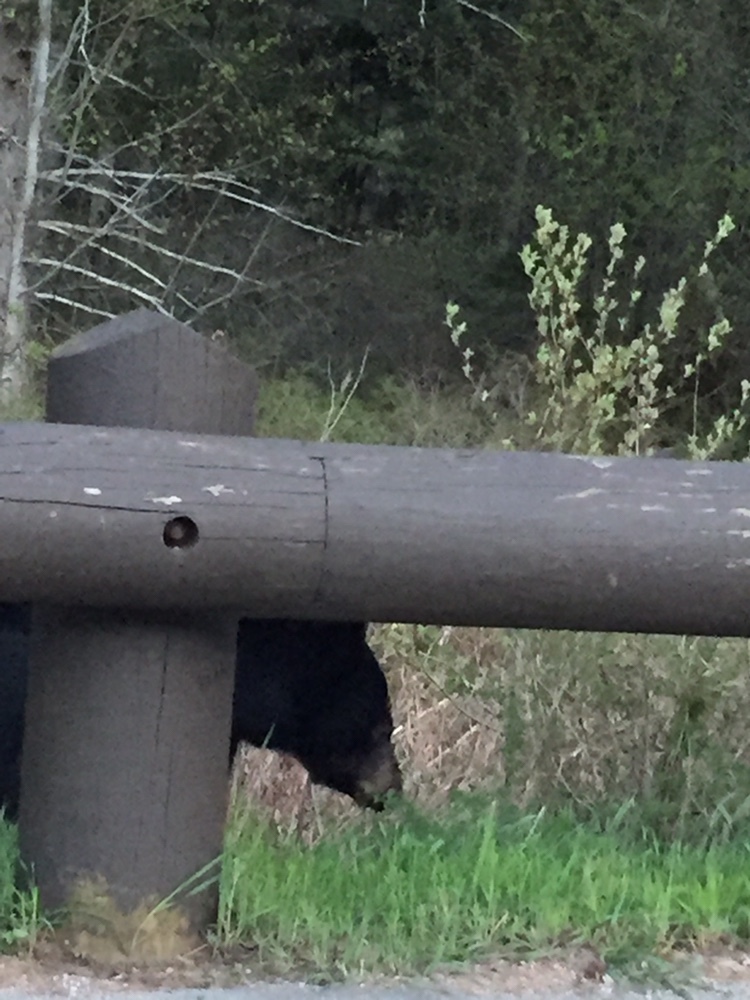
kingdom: Animalia
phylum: Chordata
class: Mammalia
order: Carnivora
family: Ursidae
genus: Ursus
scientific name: Ursus americanus
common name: American black bear
